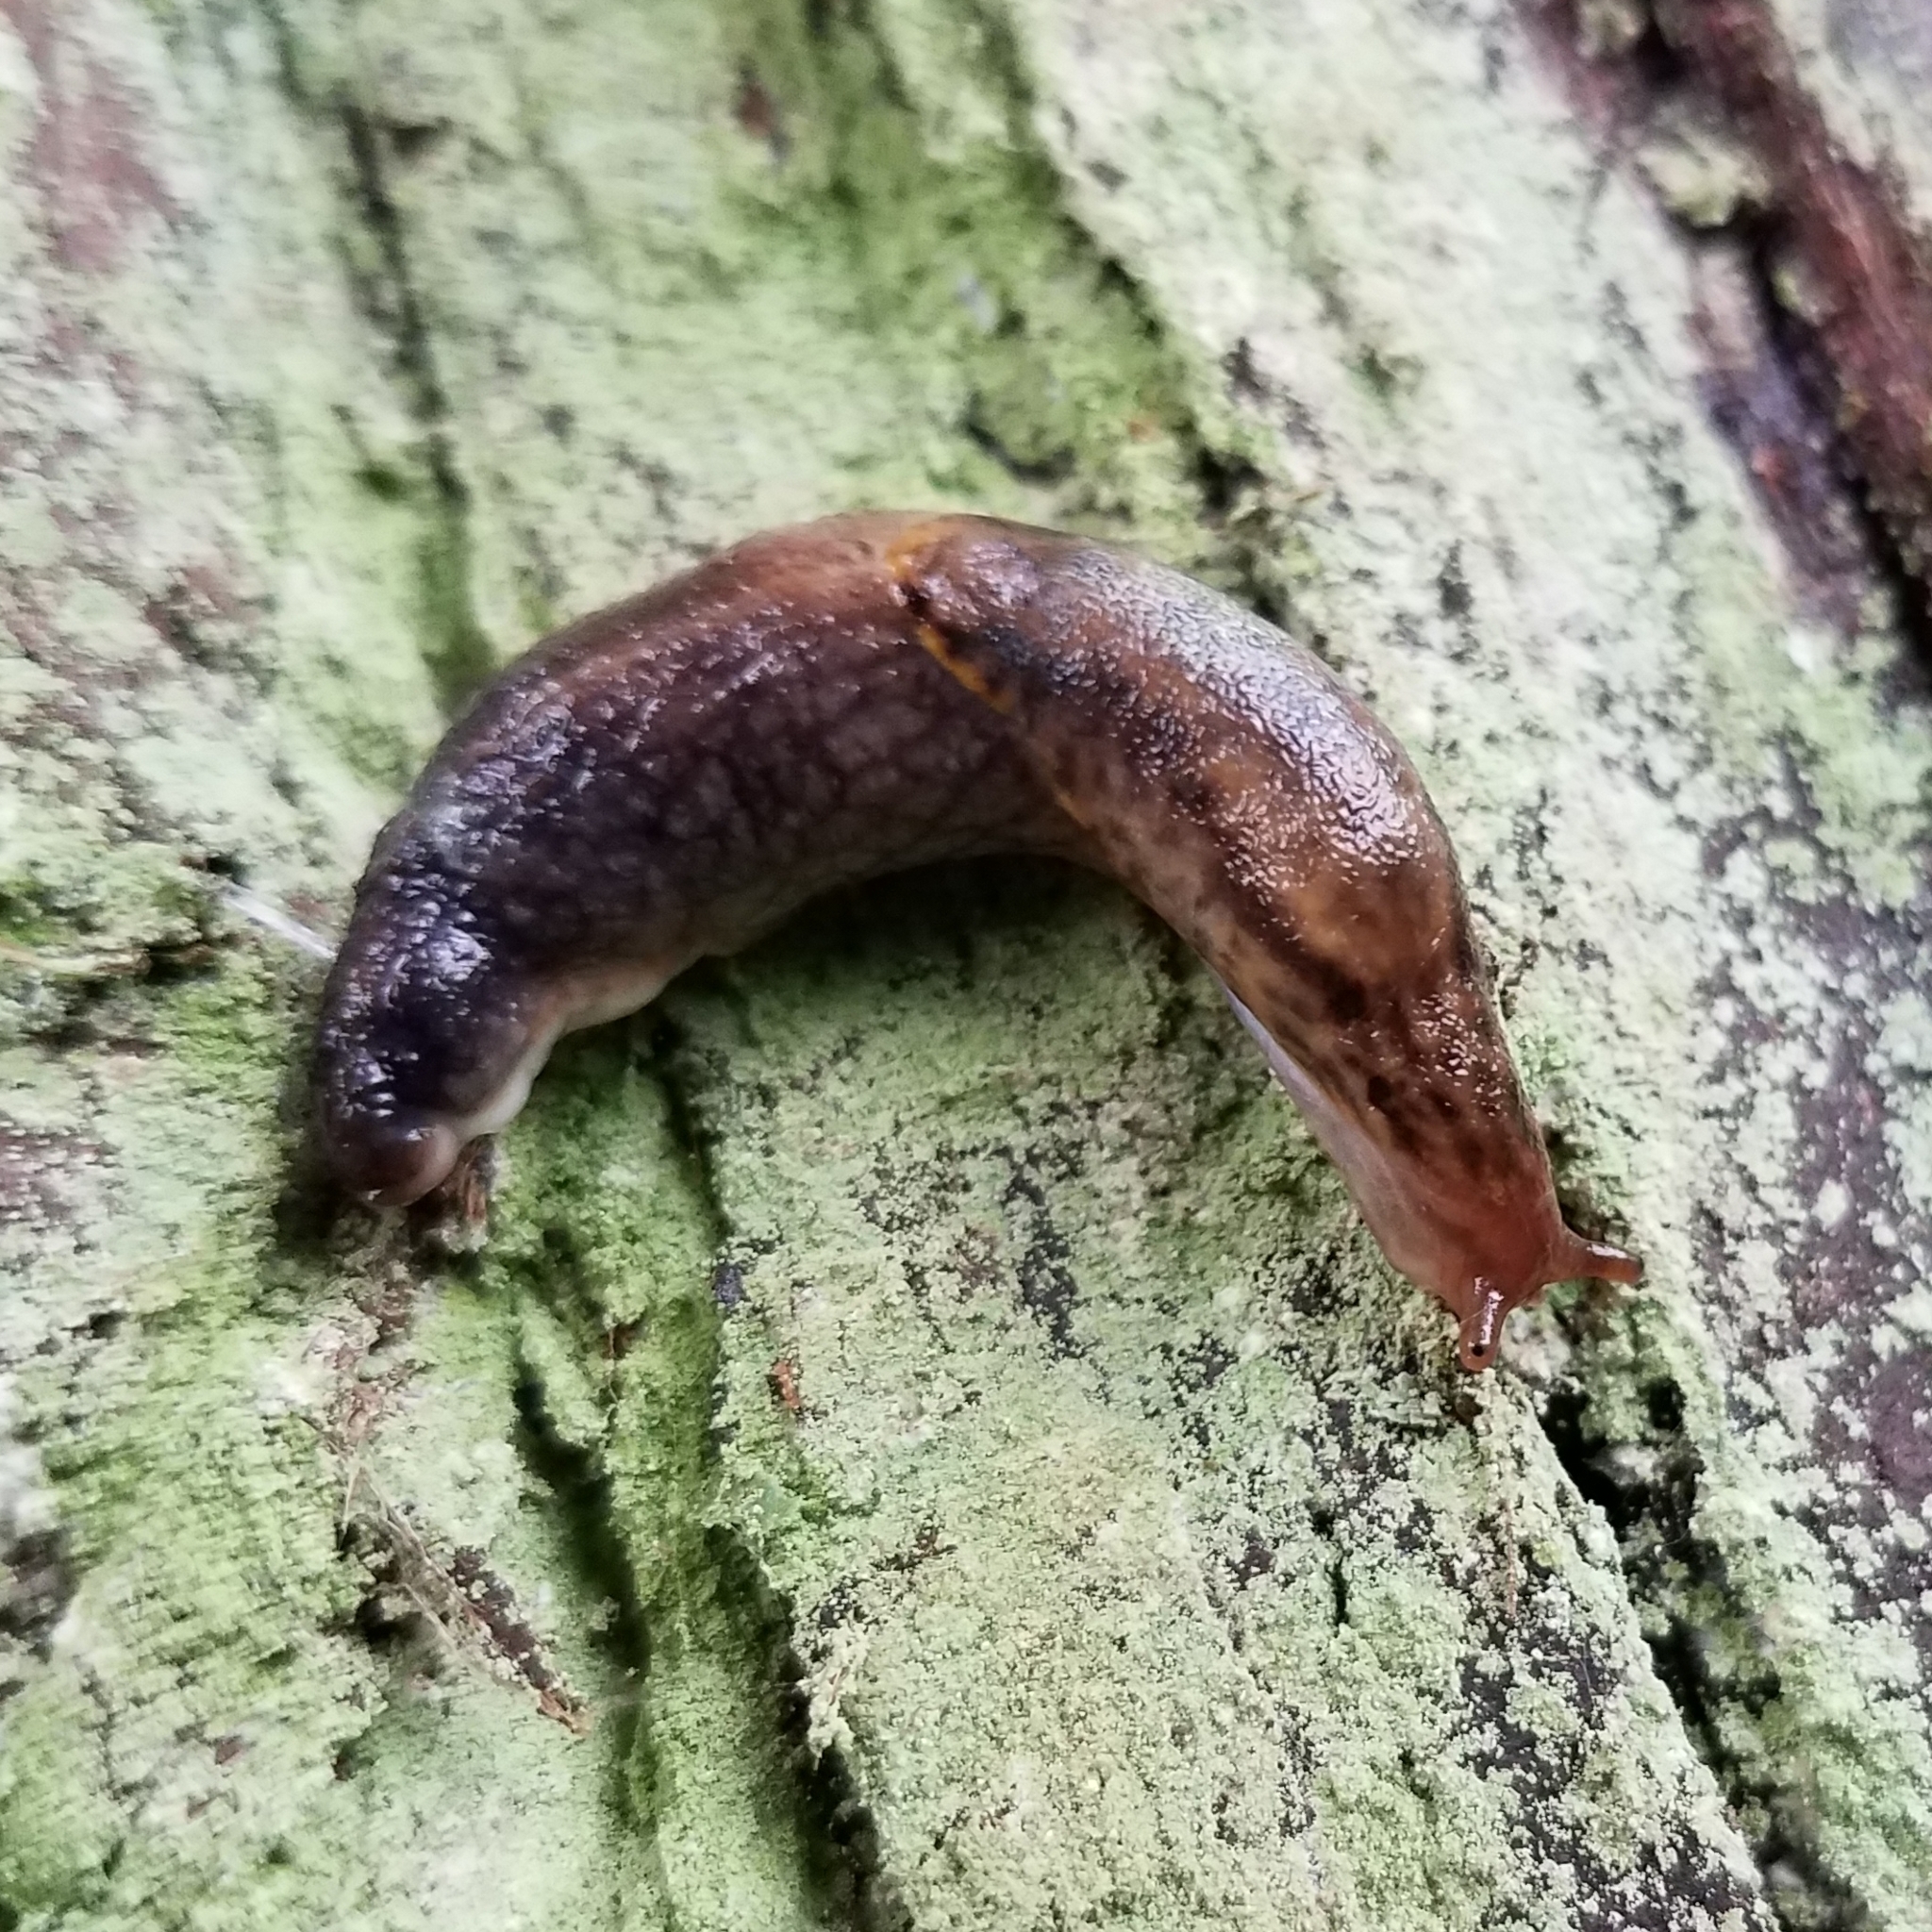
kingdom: Animalia
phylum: Mollusca
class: Gastropoda
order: Stylommatophora
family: Ariolimacidae
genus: Prophysaon
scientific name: Prophysaon foliolatum
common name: Yellow-bordered taildropper
